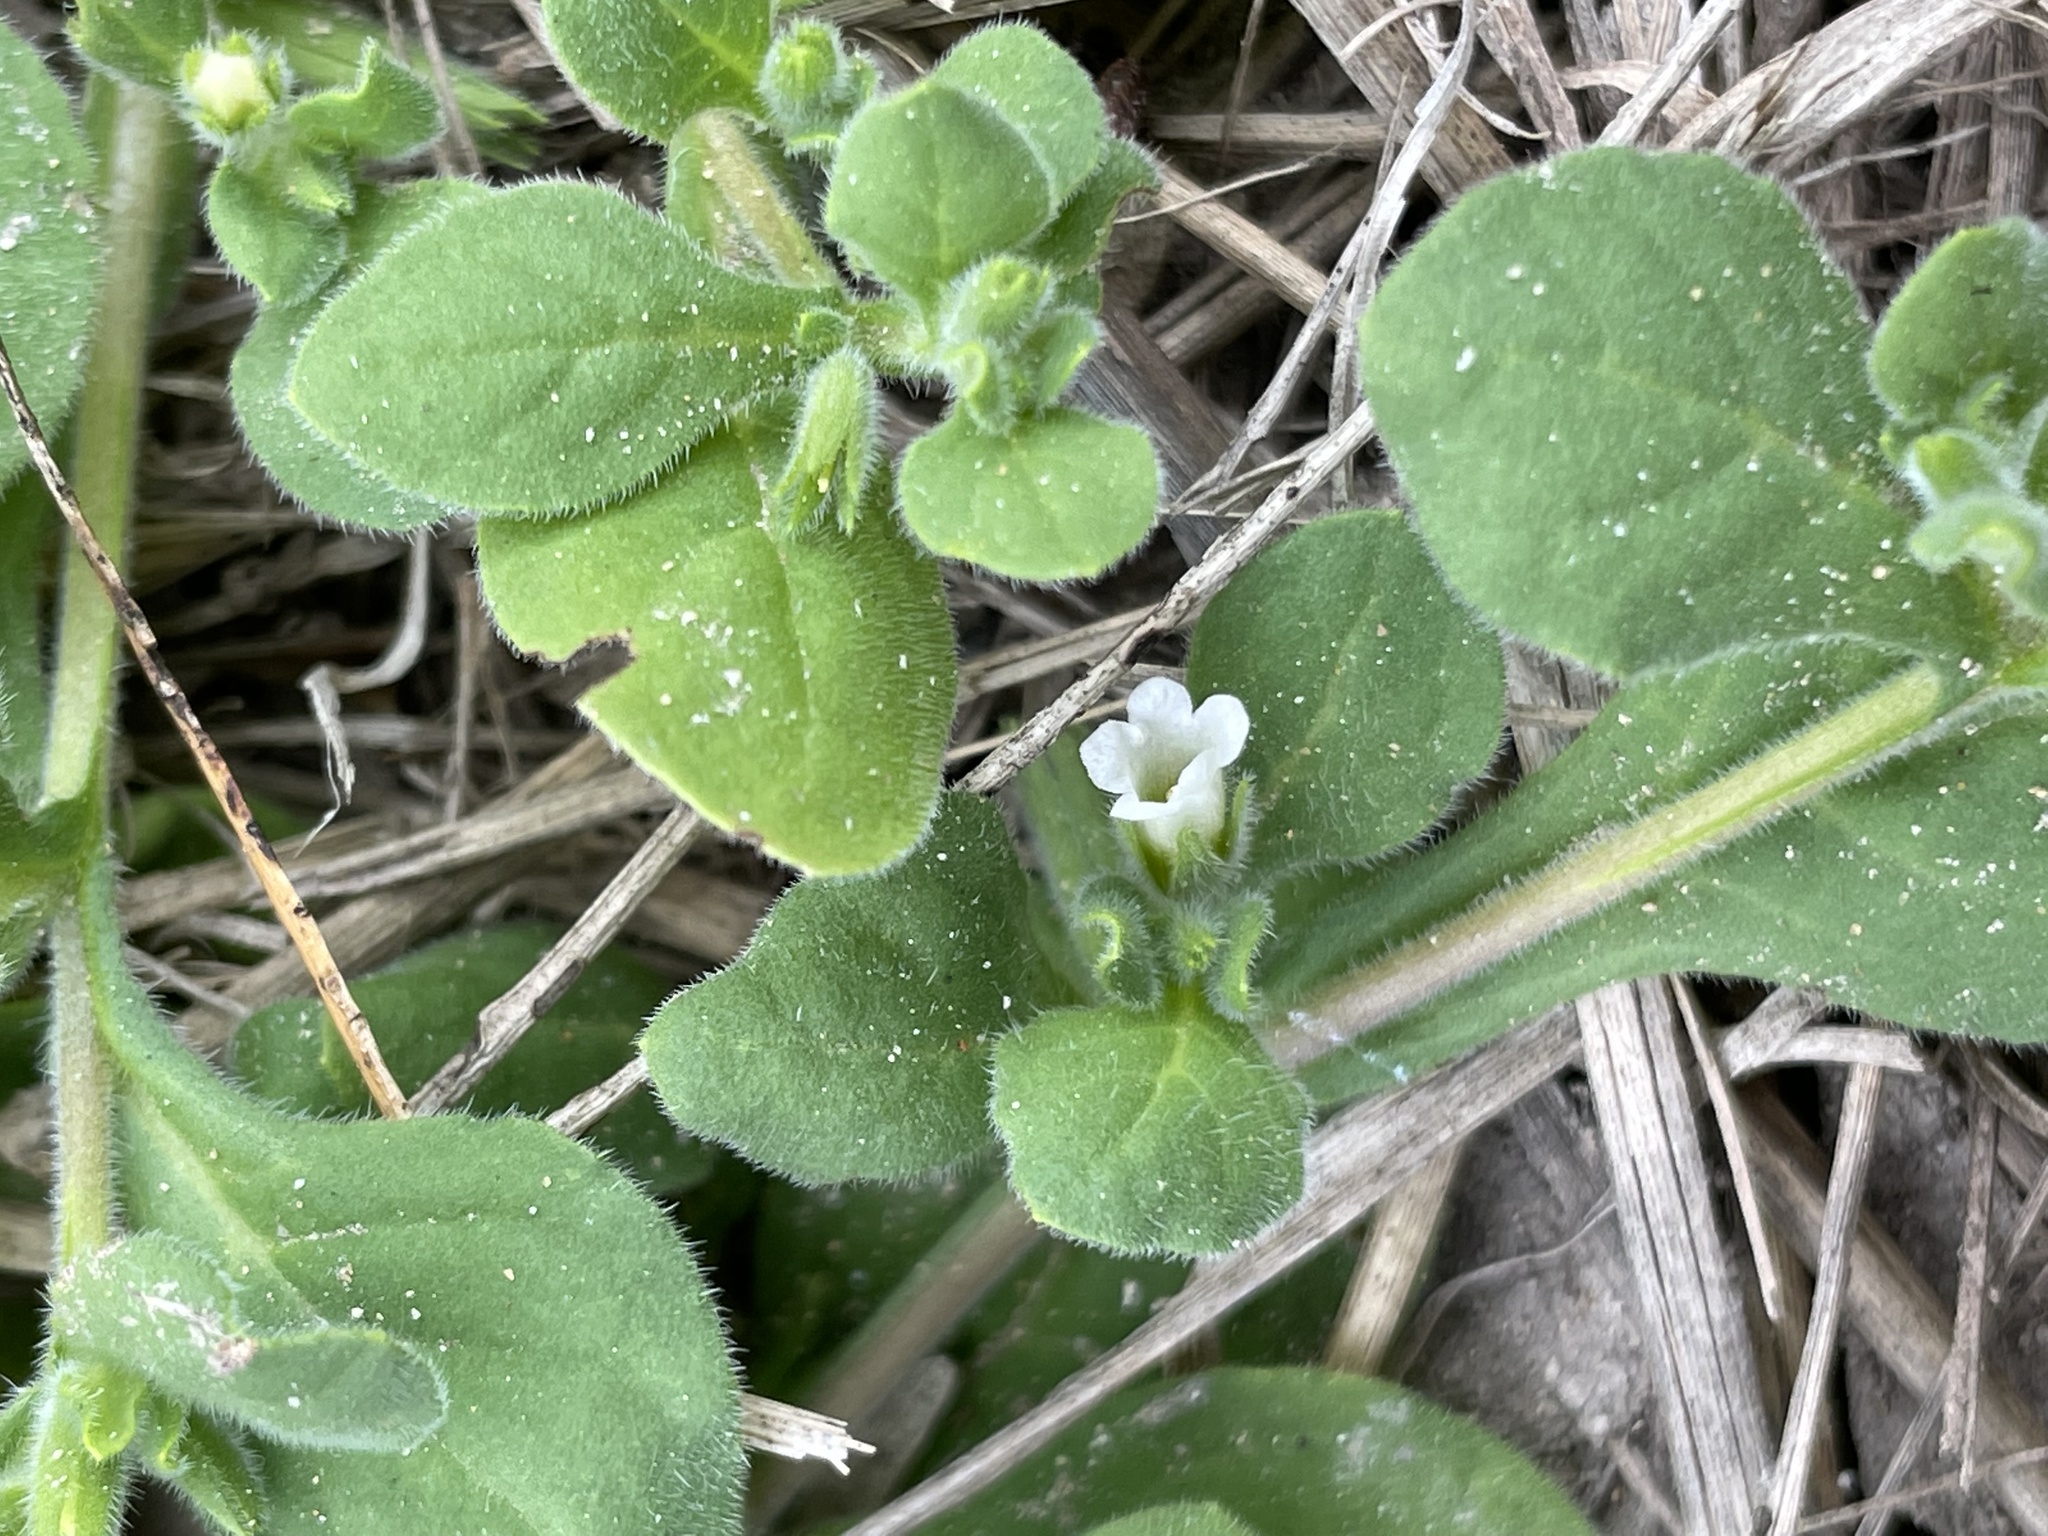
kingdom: Plantae
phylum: Tracheophyta
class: Magnoliopsida
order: Boraginales
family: Namaceae
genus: Nama
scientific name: Nama jamaicensis
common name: Jamaicanweed
